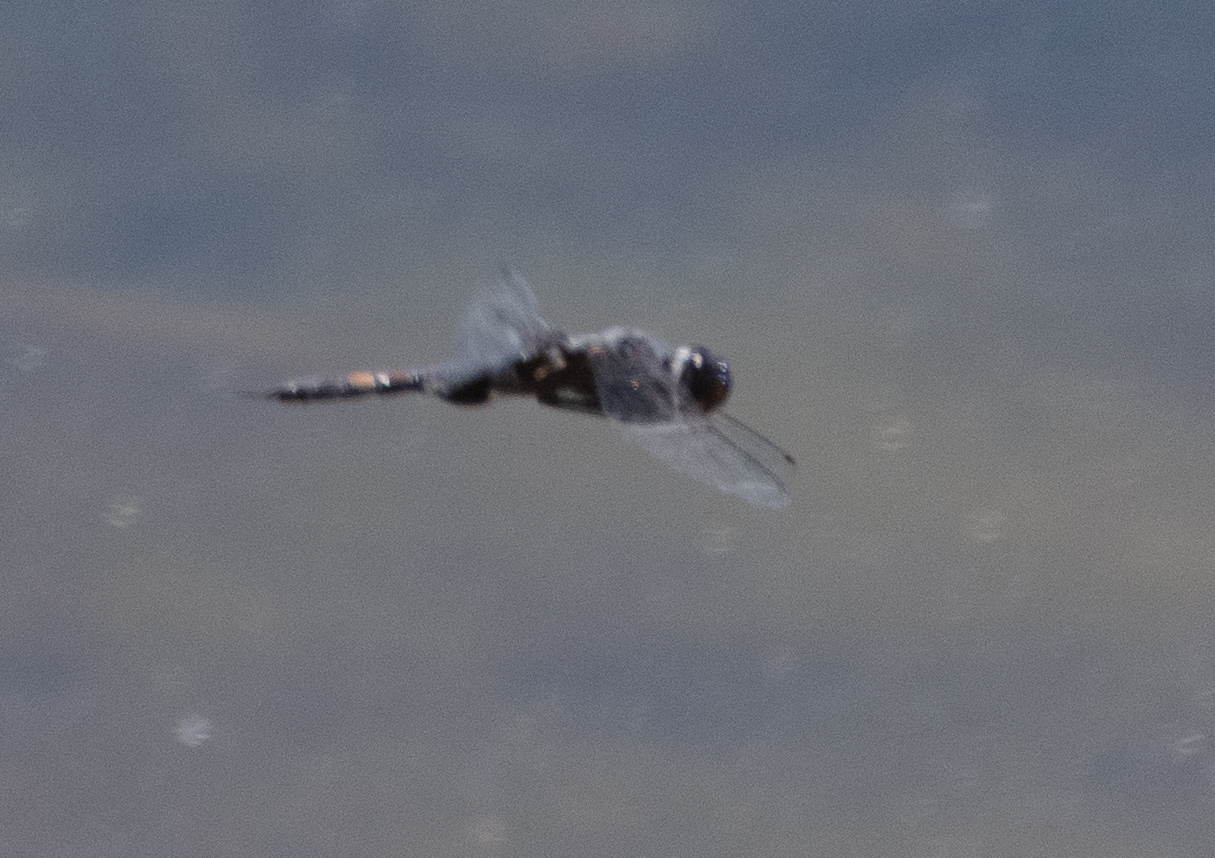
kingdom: Animalia
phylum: Arthropoda
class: Insecta
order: Odonata
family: Libellulidae
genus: Tramea
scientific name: Tramea lacerata
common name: Black saddlebags
